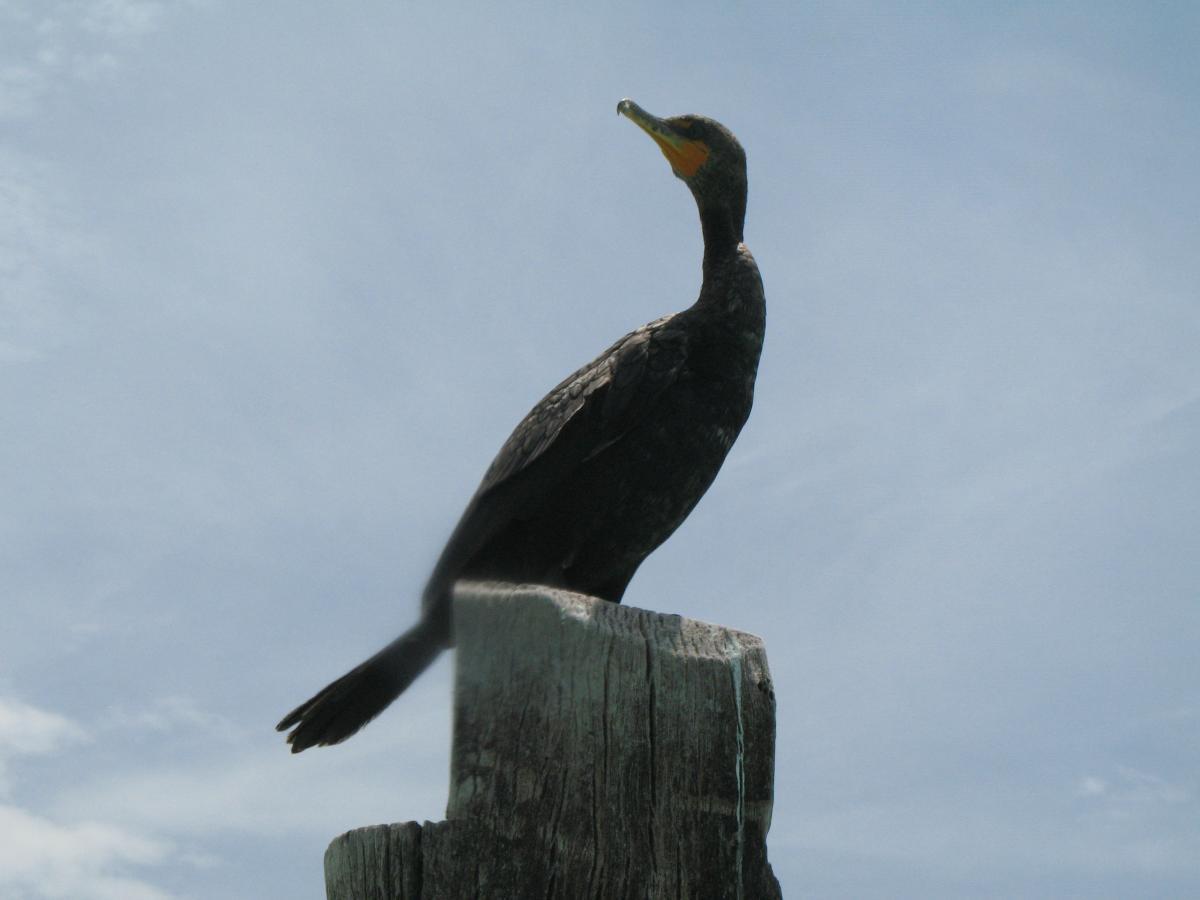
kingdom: Animalia
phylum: Chordata
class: Aves
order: Suliformes
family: Phalacrocoracidae
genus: Phalacrocorax
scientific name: Phalacrocorax auritus
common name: Double-crested cormorant
